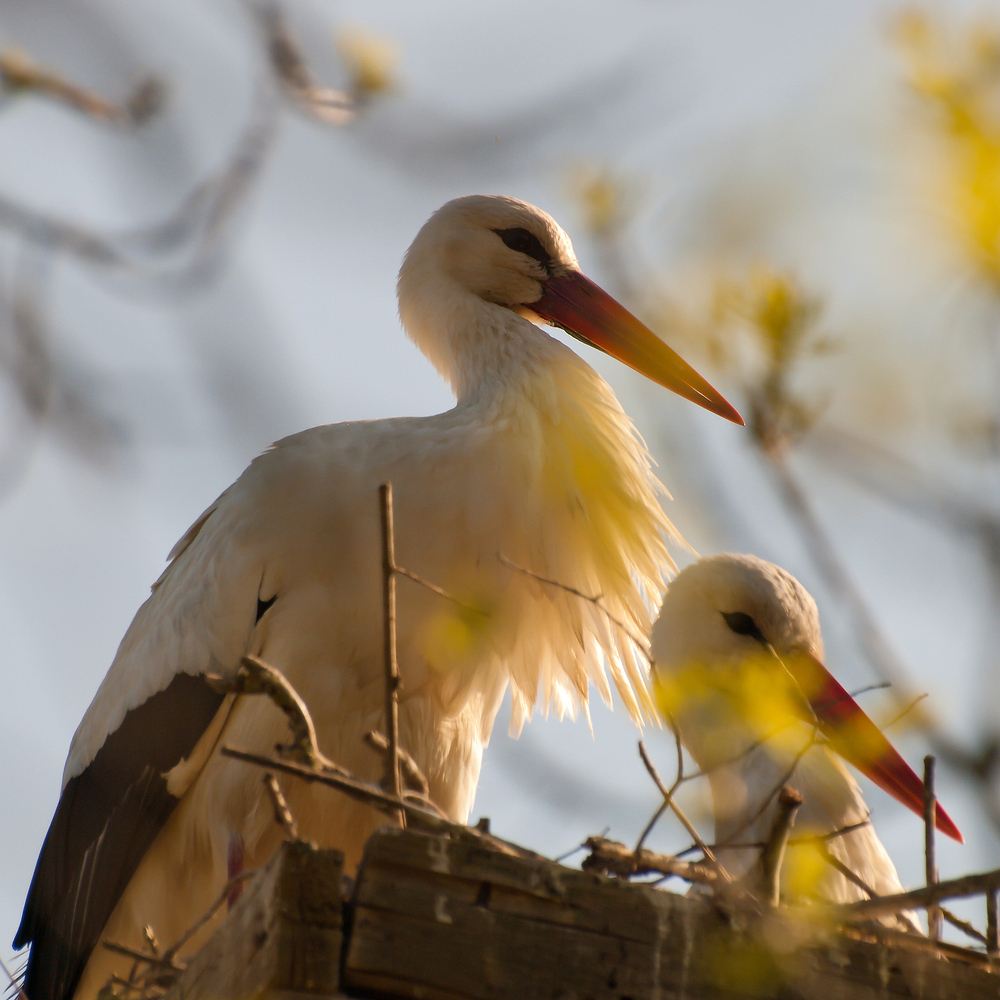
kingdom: Animalia
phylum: Chordata
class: Aves
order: Ciconiiformes
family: Ciconiidae
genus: Ciconia
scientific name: Ciconia ciconia
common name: White stork
